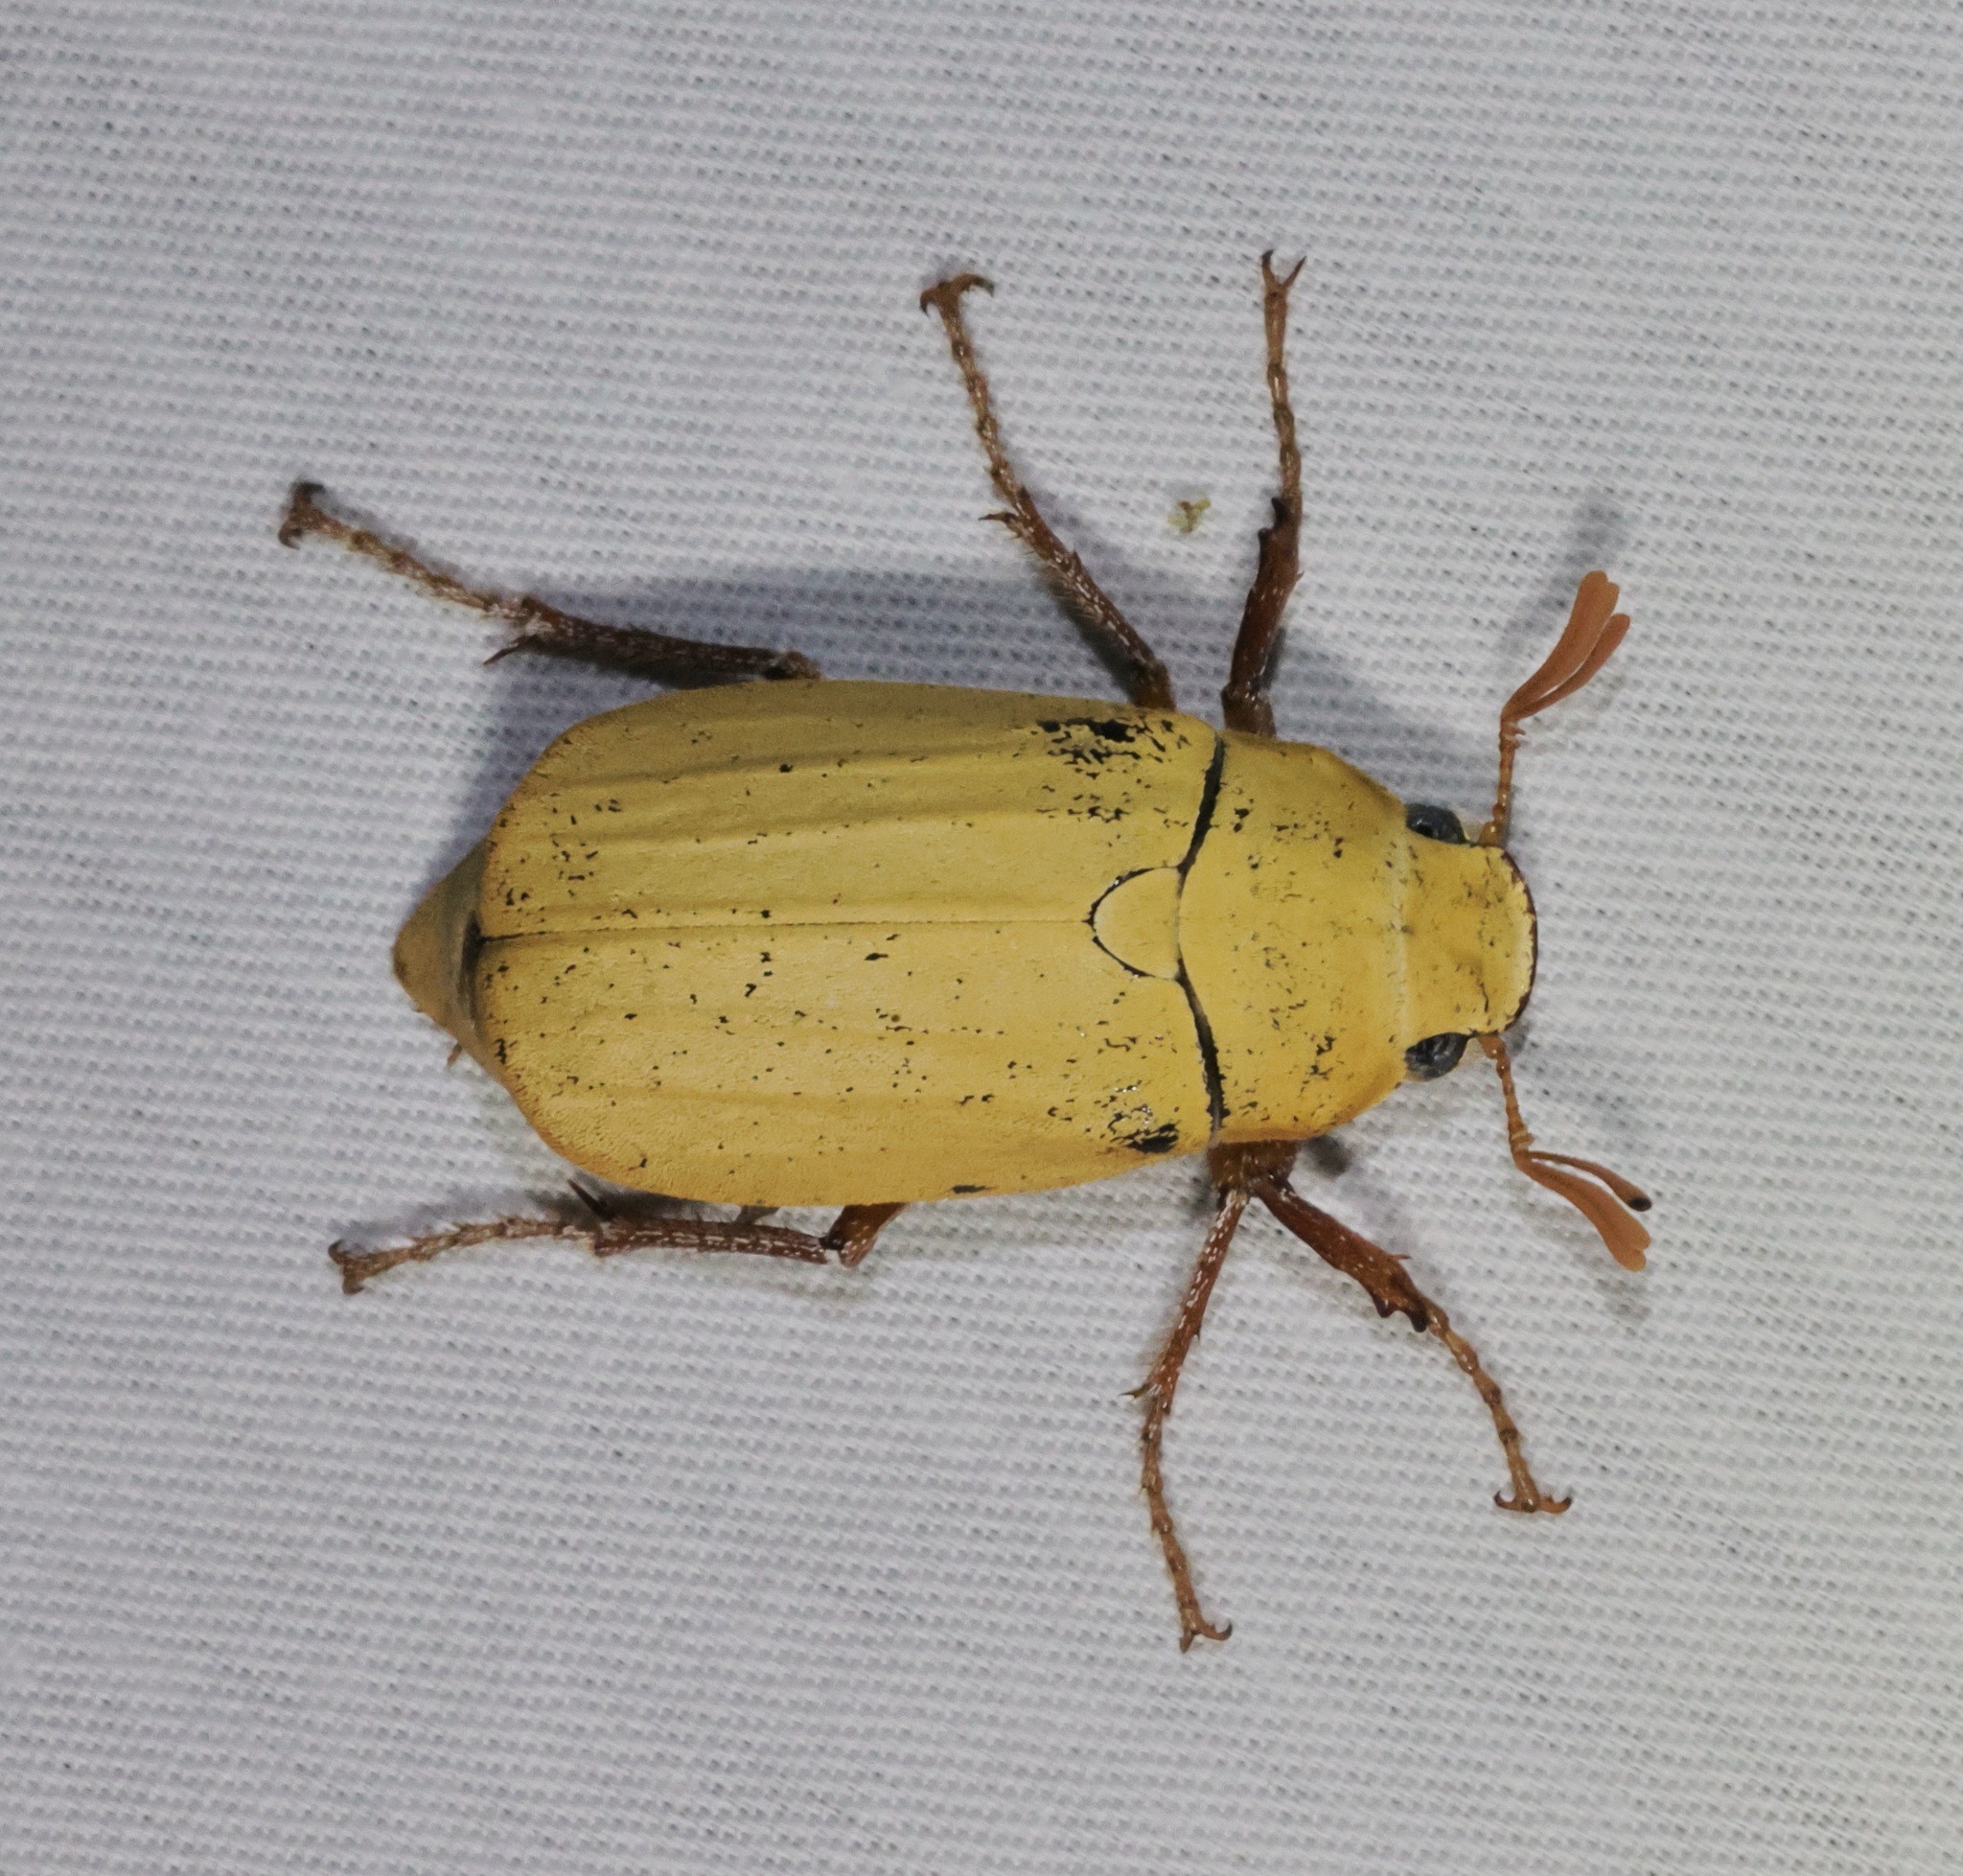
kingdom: Animalia
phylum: Arthropoda
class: Insecta
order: Coleoptera
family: Scarabaeidae
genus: Cyphochilus
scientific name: Cyphochilus apicalis
